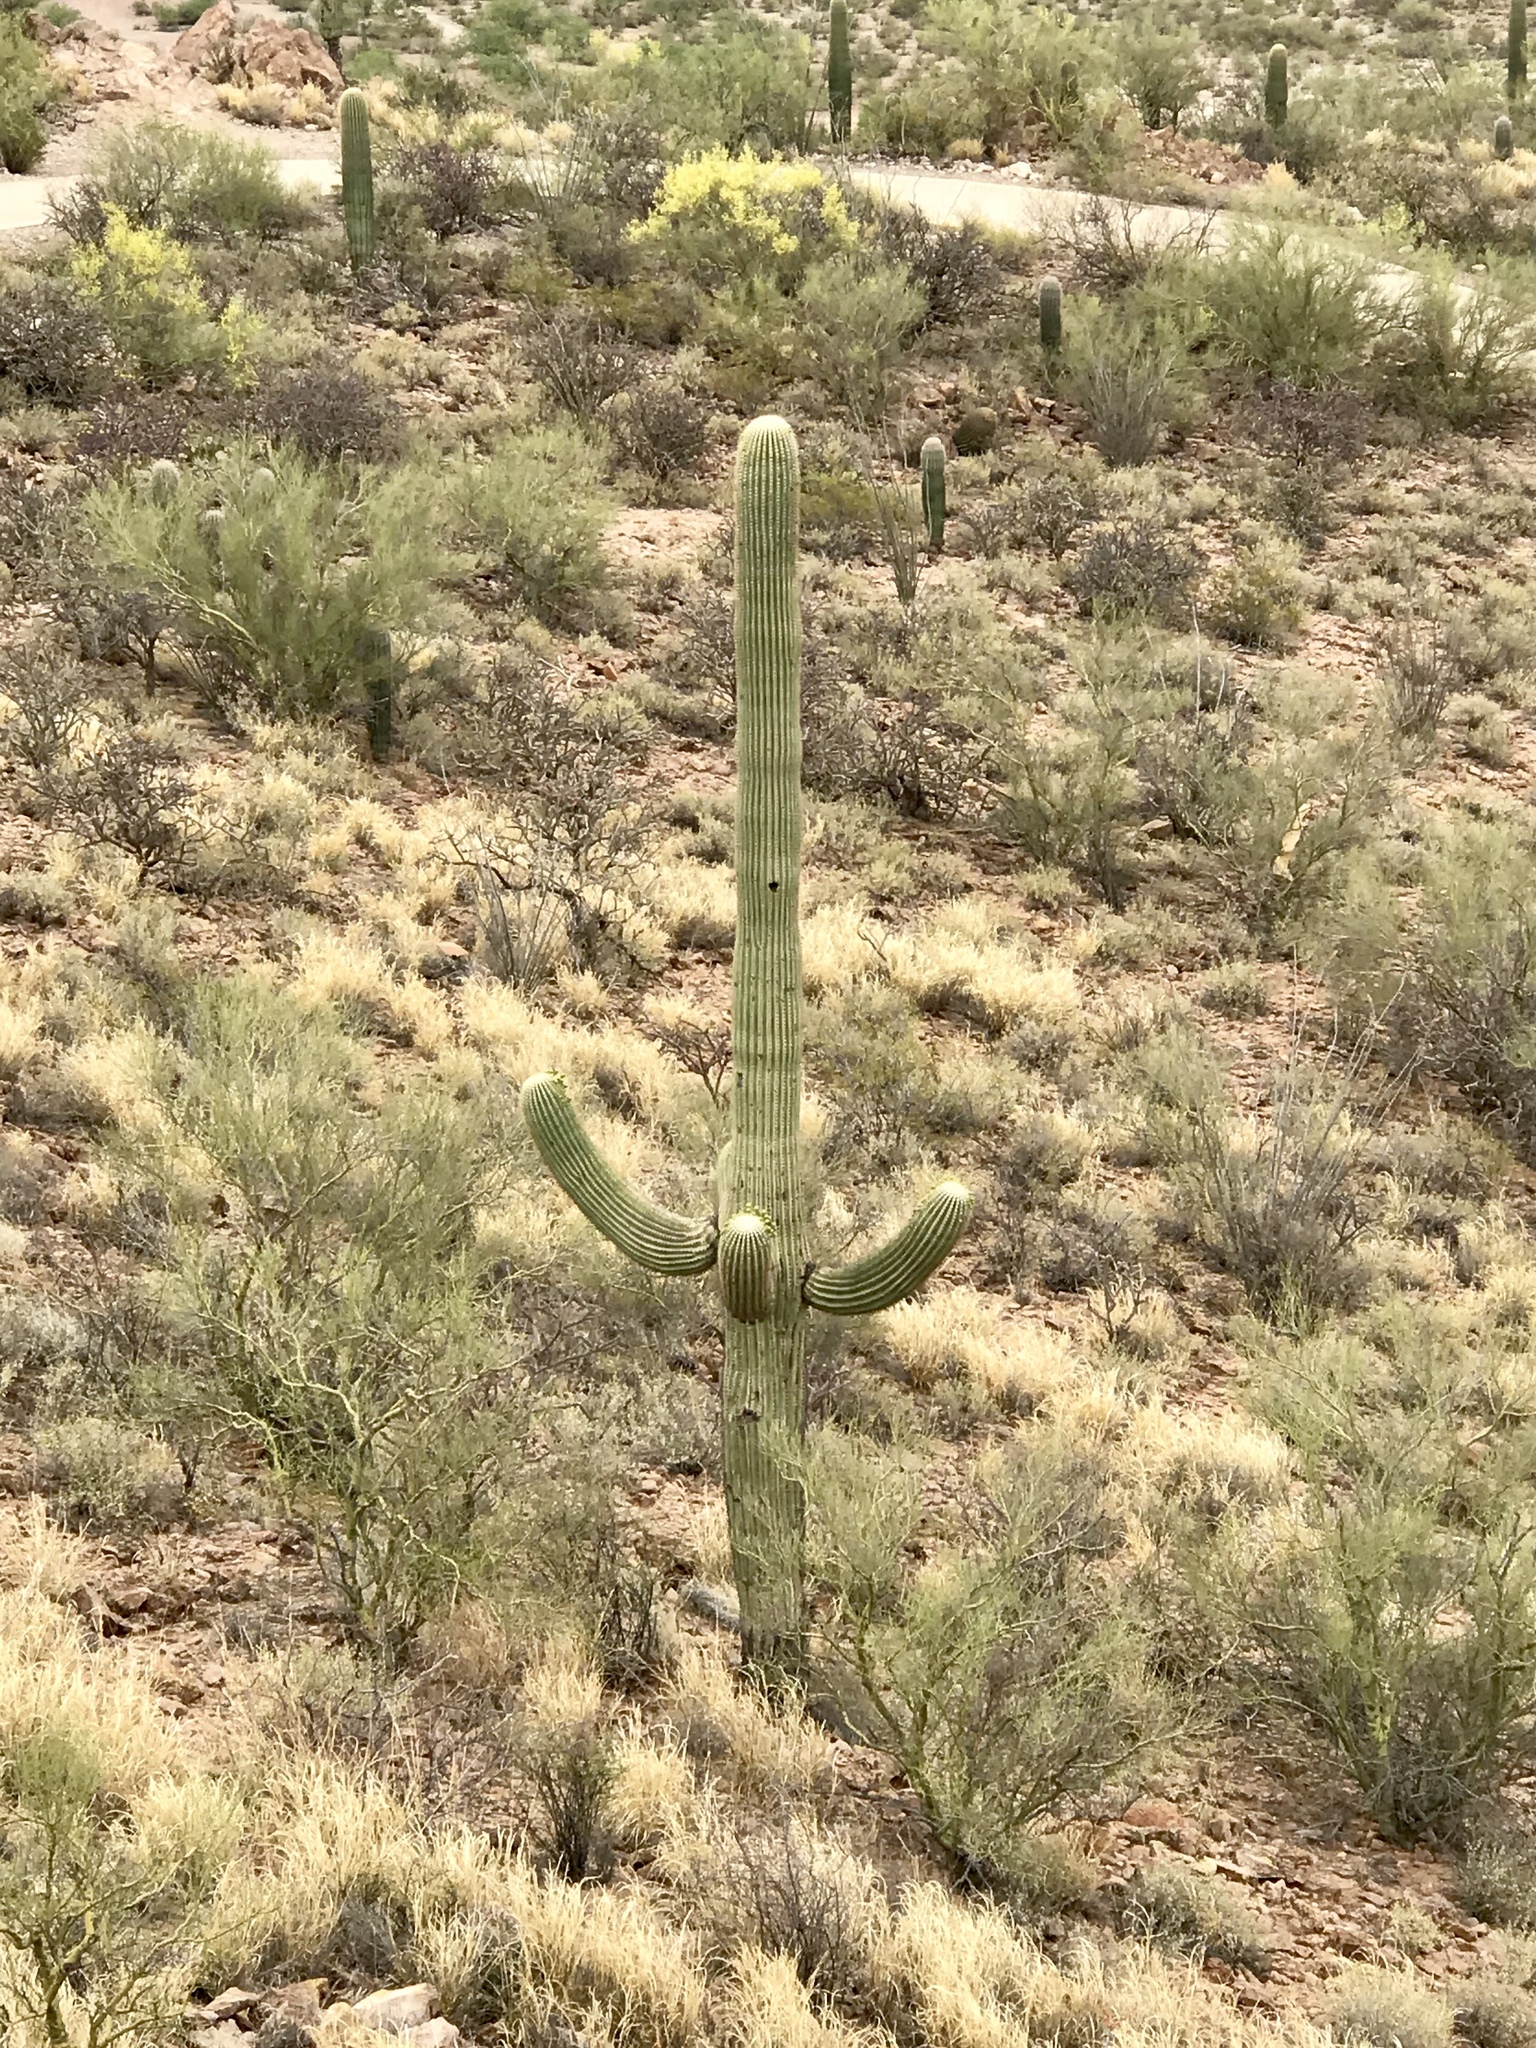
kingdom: Plantae
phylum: Tracheophyta
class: Magnoliopsida
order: Caryophyllales
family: Cactaceae
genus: Carnegiea
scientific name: Carnegiea gigantea
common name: Saguaro
